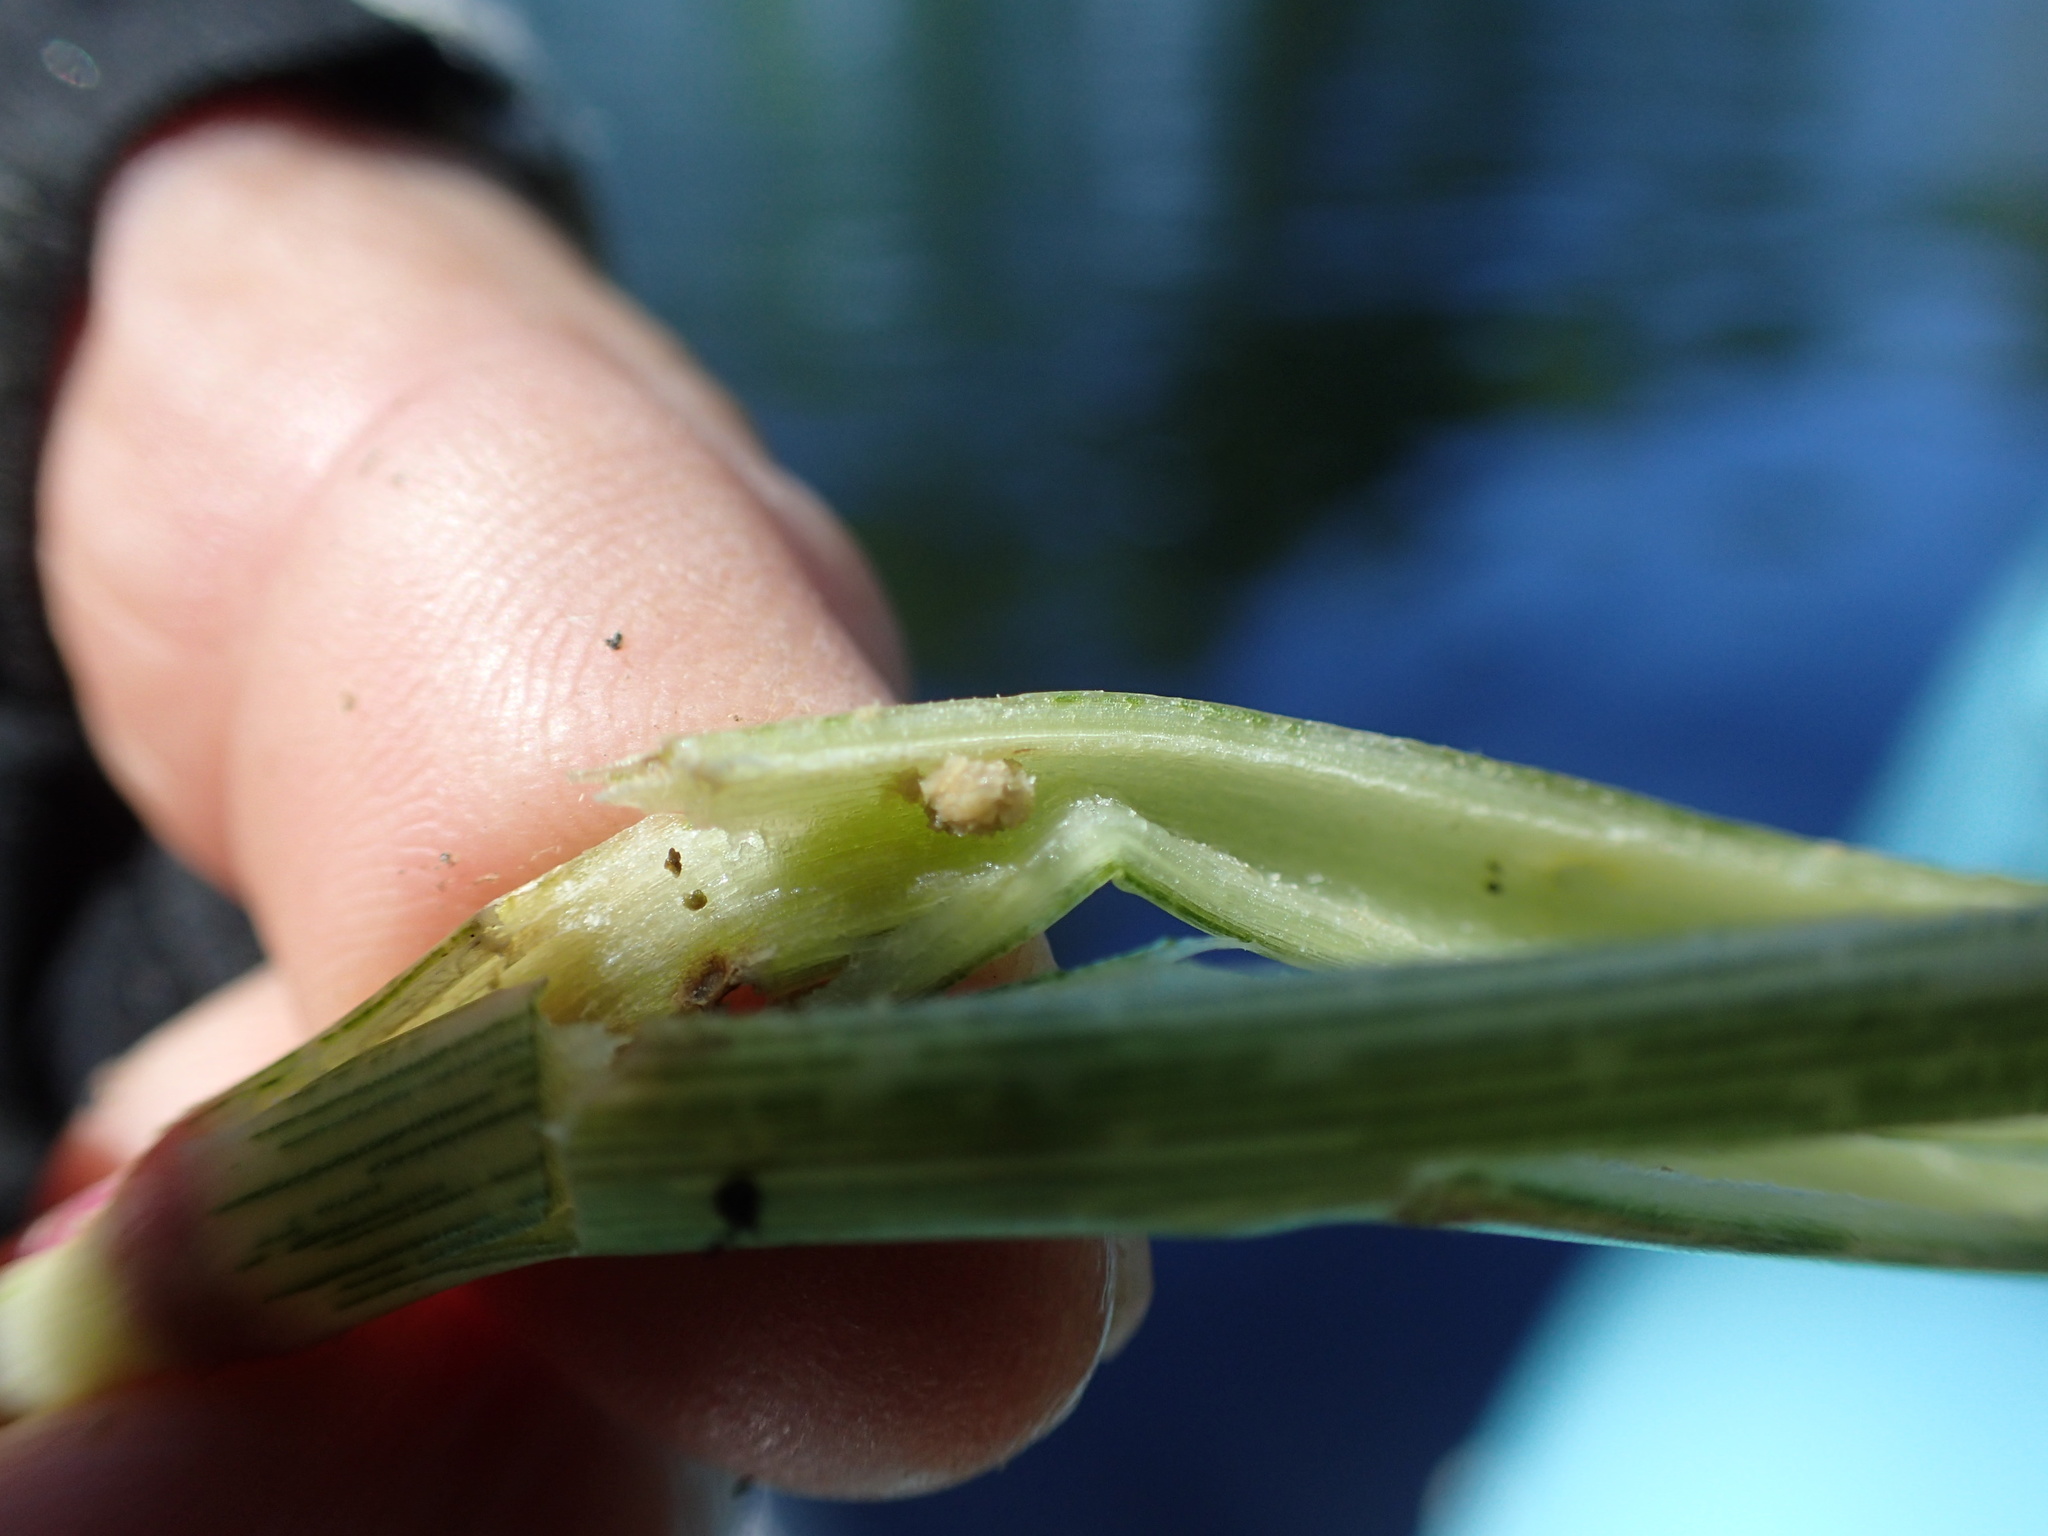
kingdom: Animalia
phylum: Arthropoda
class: Insecta
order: Coleoptera
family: Chrysomelidae
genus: Agasicles
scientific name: Agasicles hygrophila
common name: Alligatorweed flea beetle
